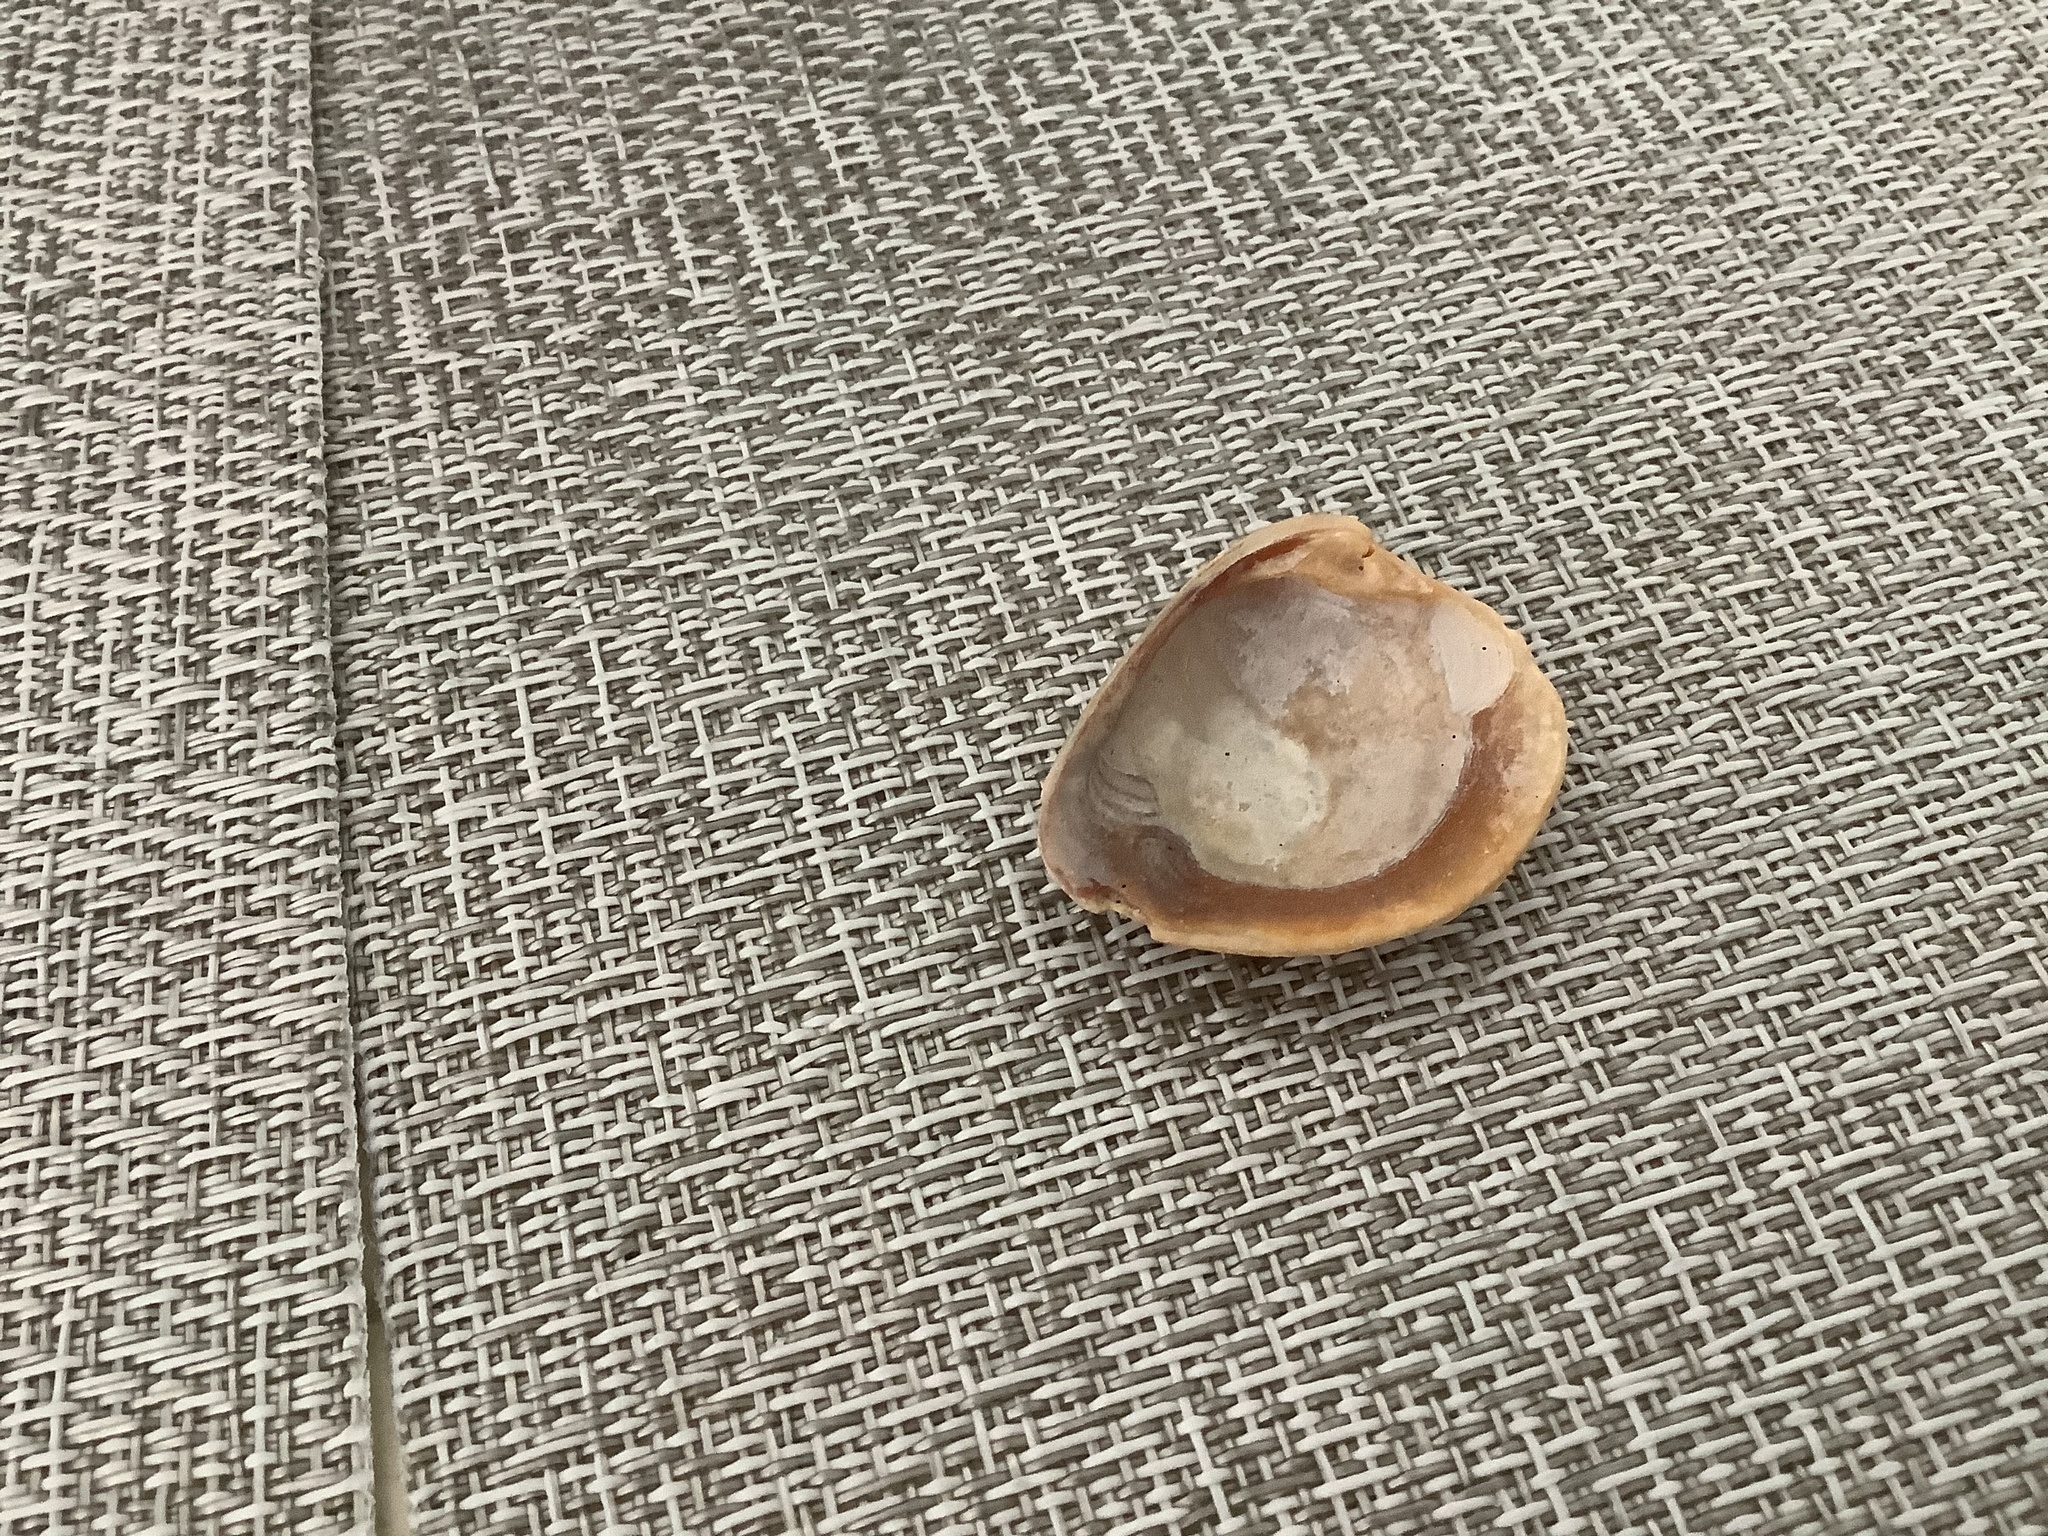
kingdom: Animalia
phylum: Mollusca
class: Bivalvia
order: Venerida
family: Veneridae
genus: Chione
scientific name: Chione elevata
